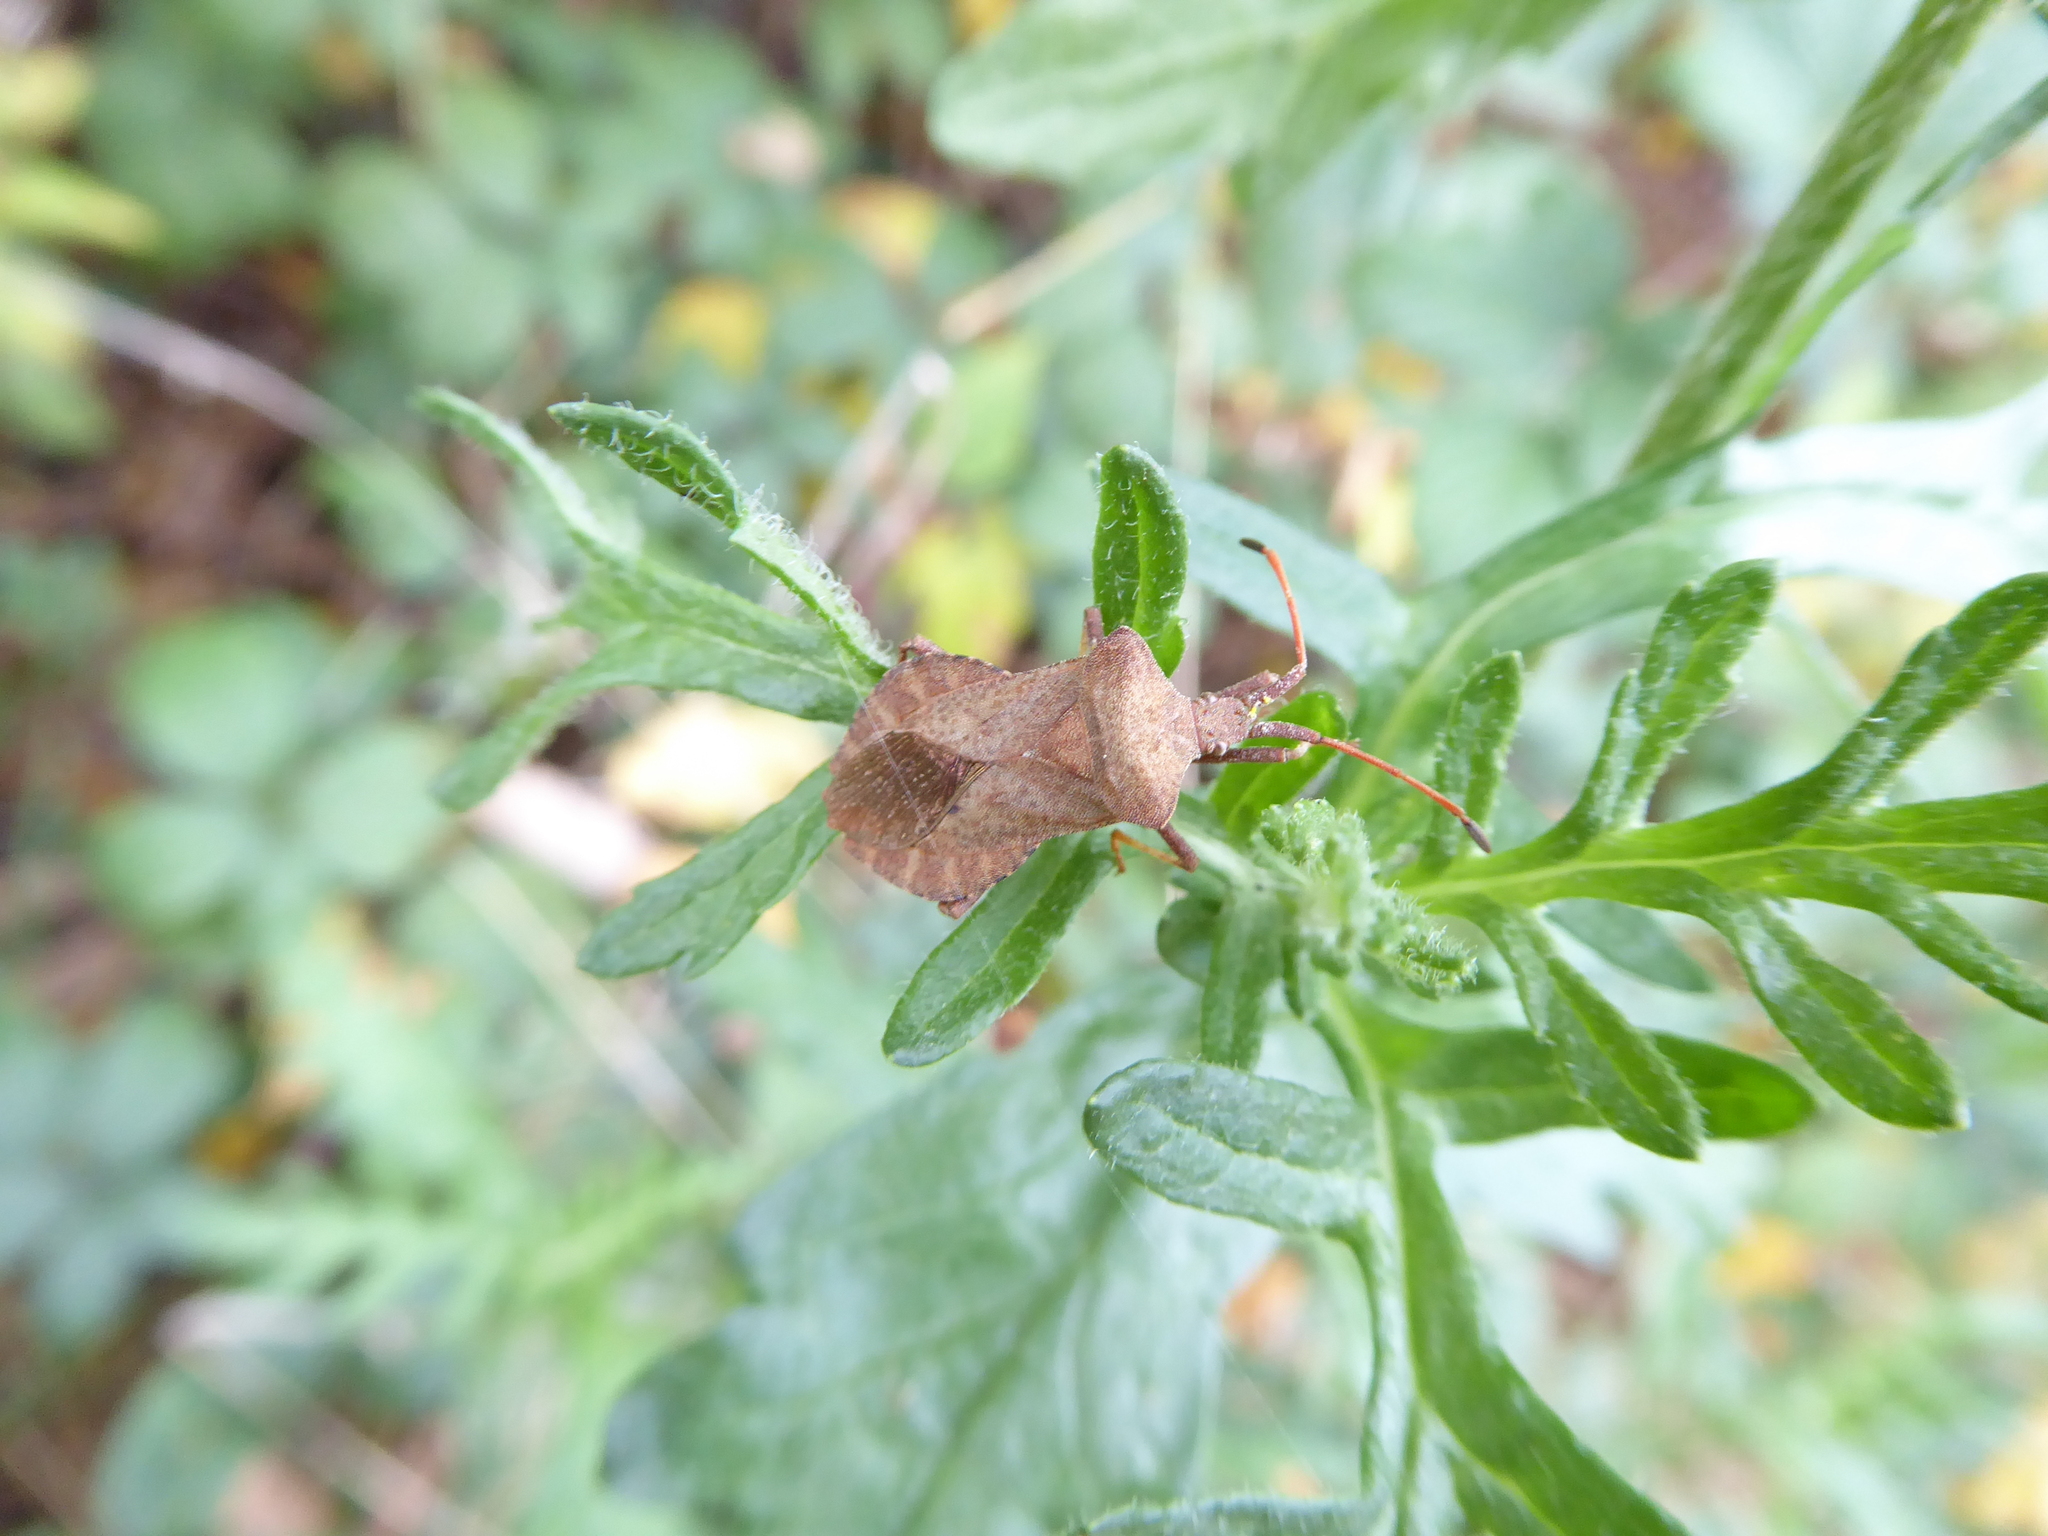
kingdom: Animalia
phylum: Arthropoda
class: Insecta
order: Hemiptera
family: Coreidae
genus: Coreus
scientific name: Coreus marginatus
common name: Dock bug
